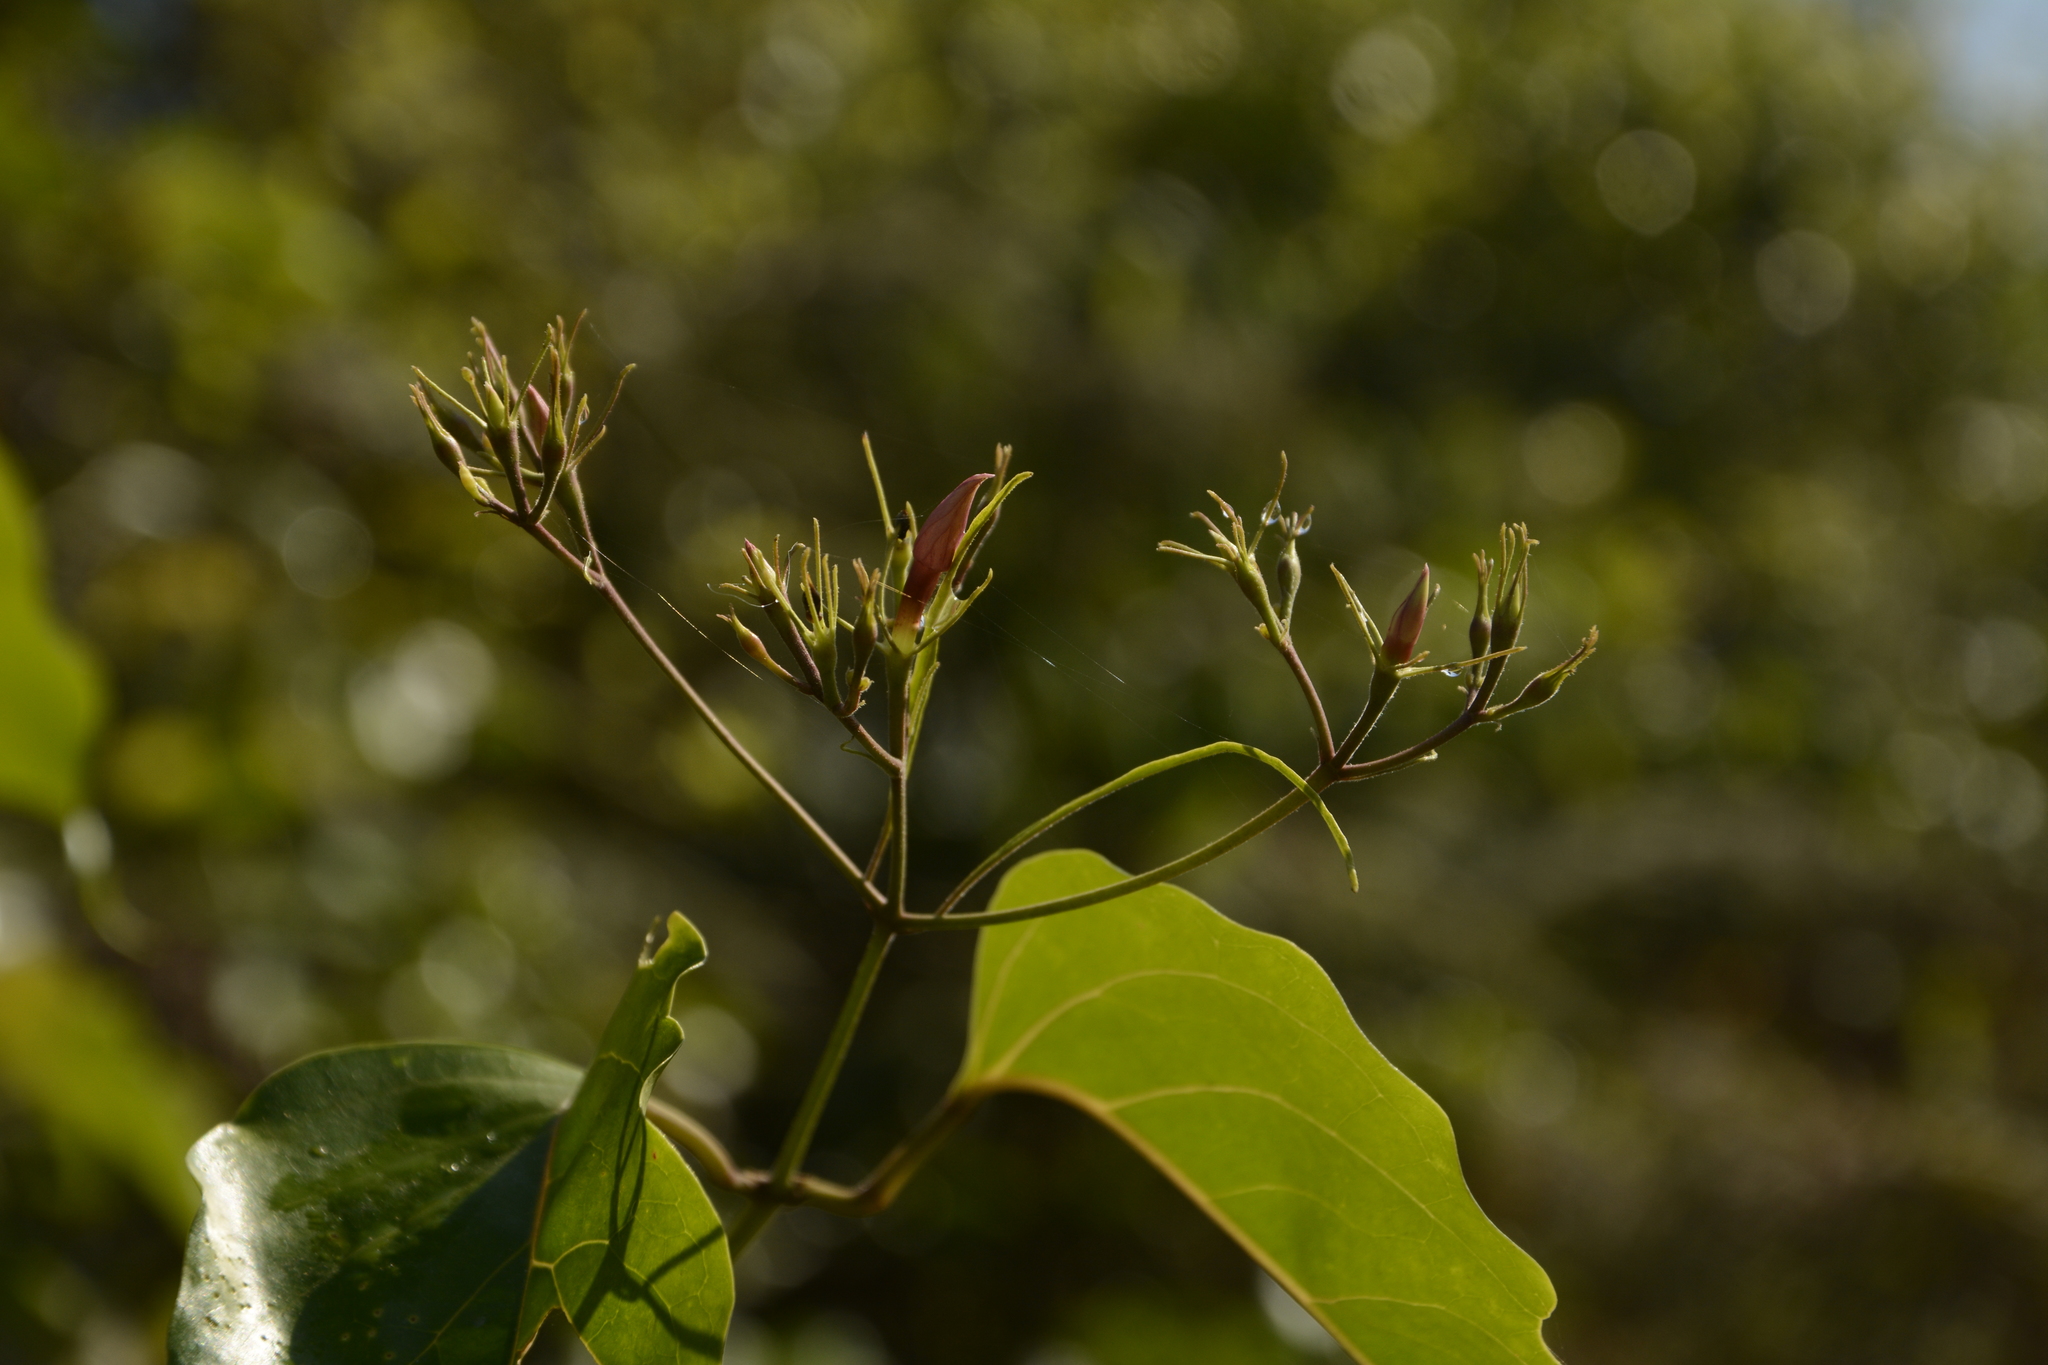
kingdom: Plantae
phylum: Tracheophyta
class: Magnoliopsida
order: Lamiales
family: Oleaceae
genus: Jasminum
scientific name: Jasminum malabaricum
